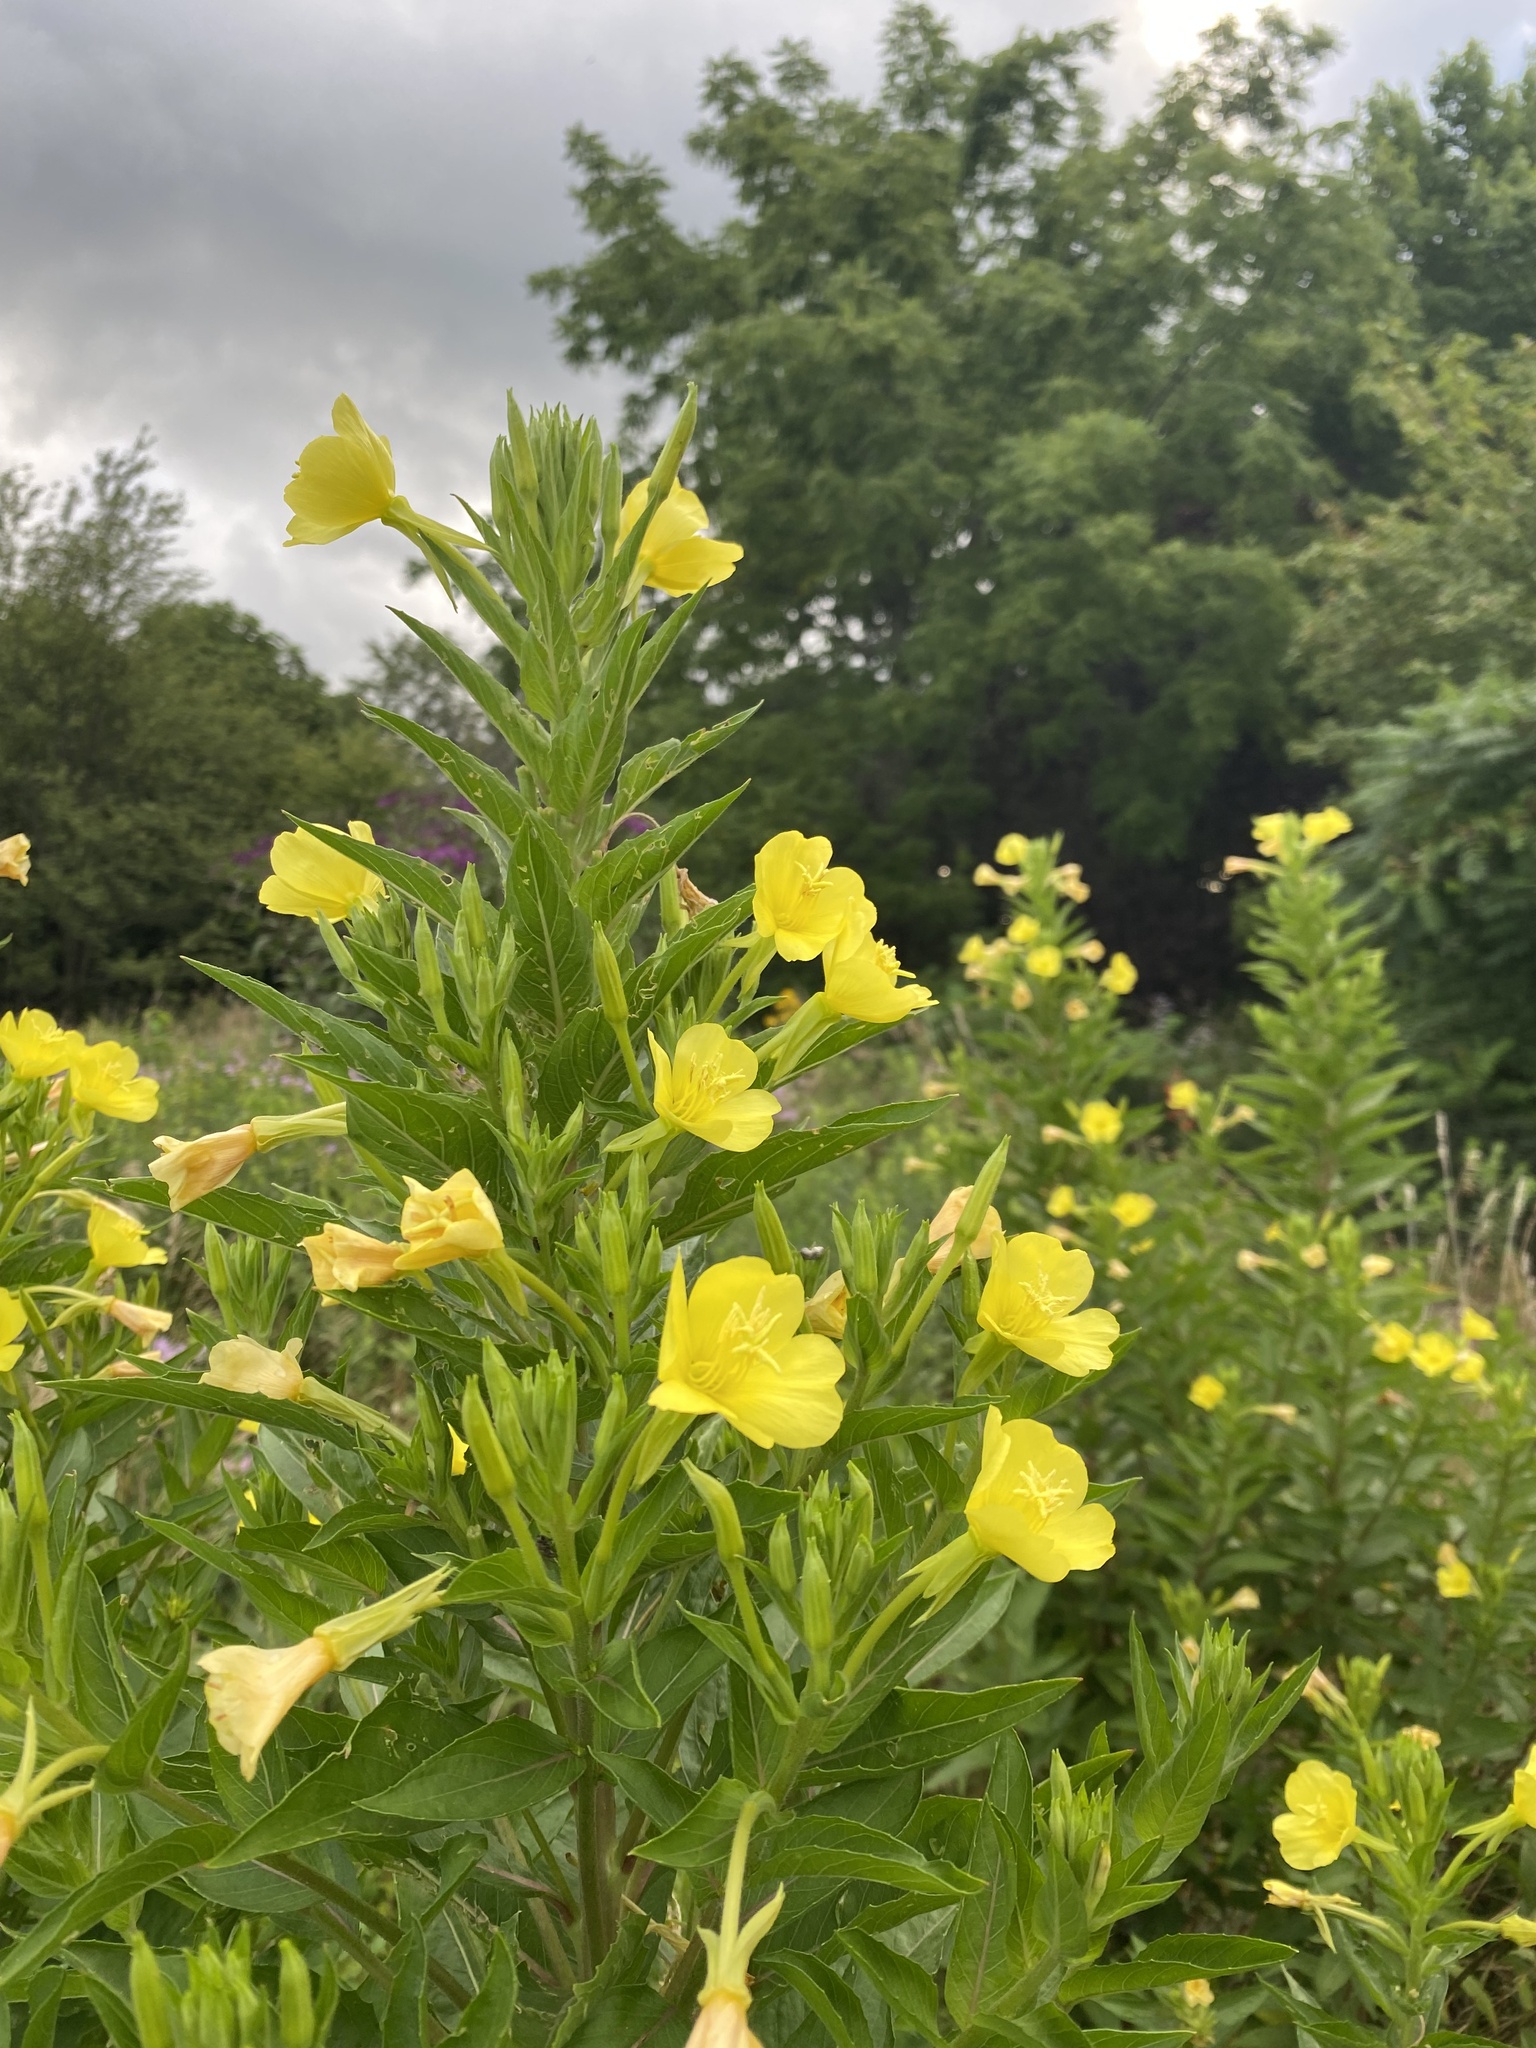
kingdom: Plantae
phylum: Tracheophyta
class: Magnoliopsida
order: Myrtales
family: Onagraceae
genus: Oenothera
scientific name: Oenothera biennis
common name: Common evening-primrose
